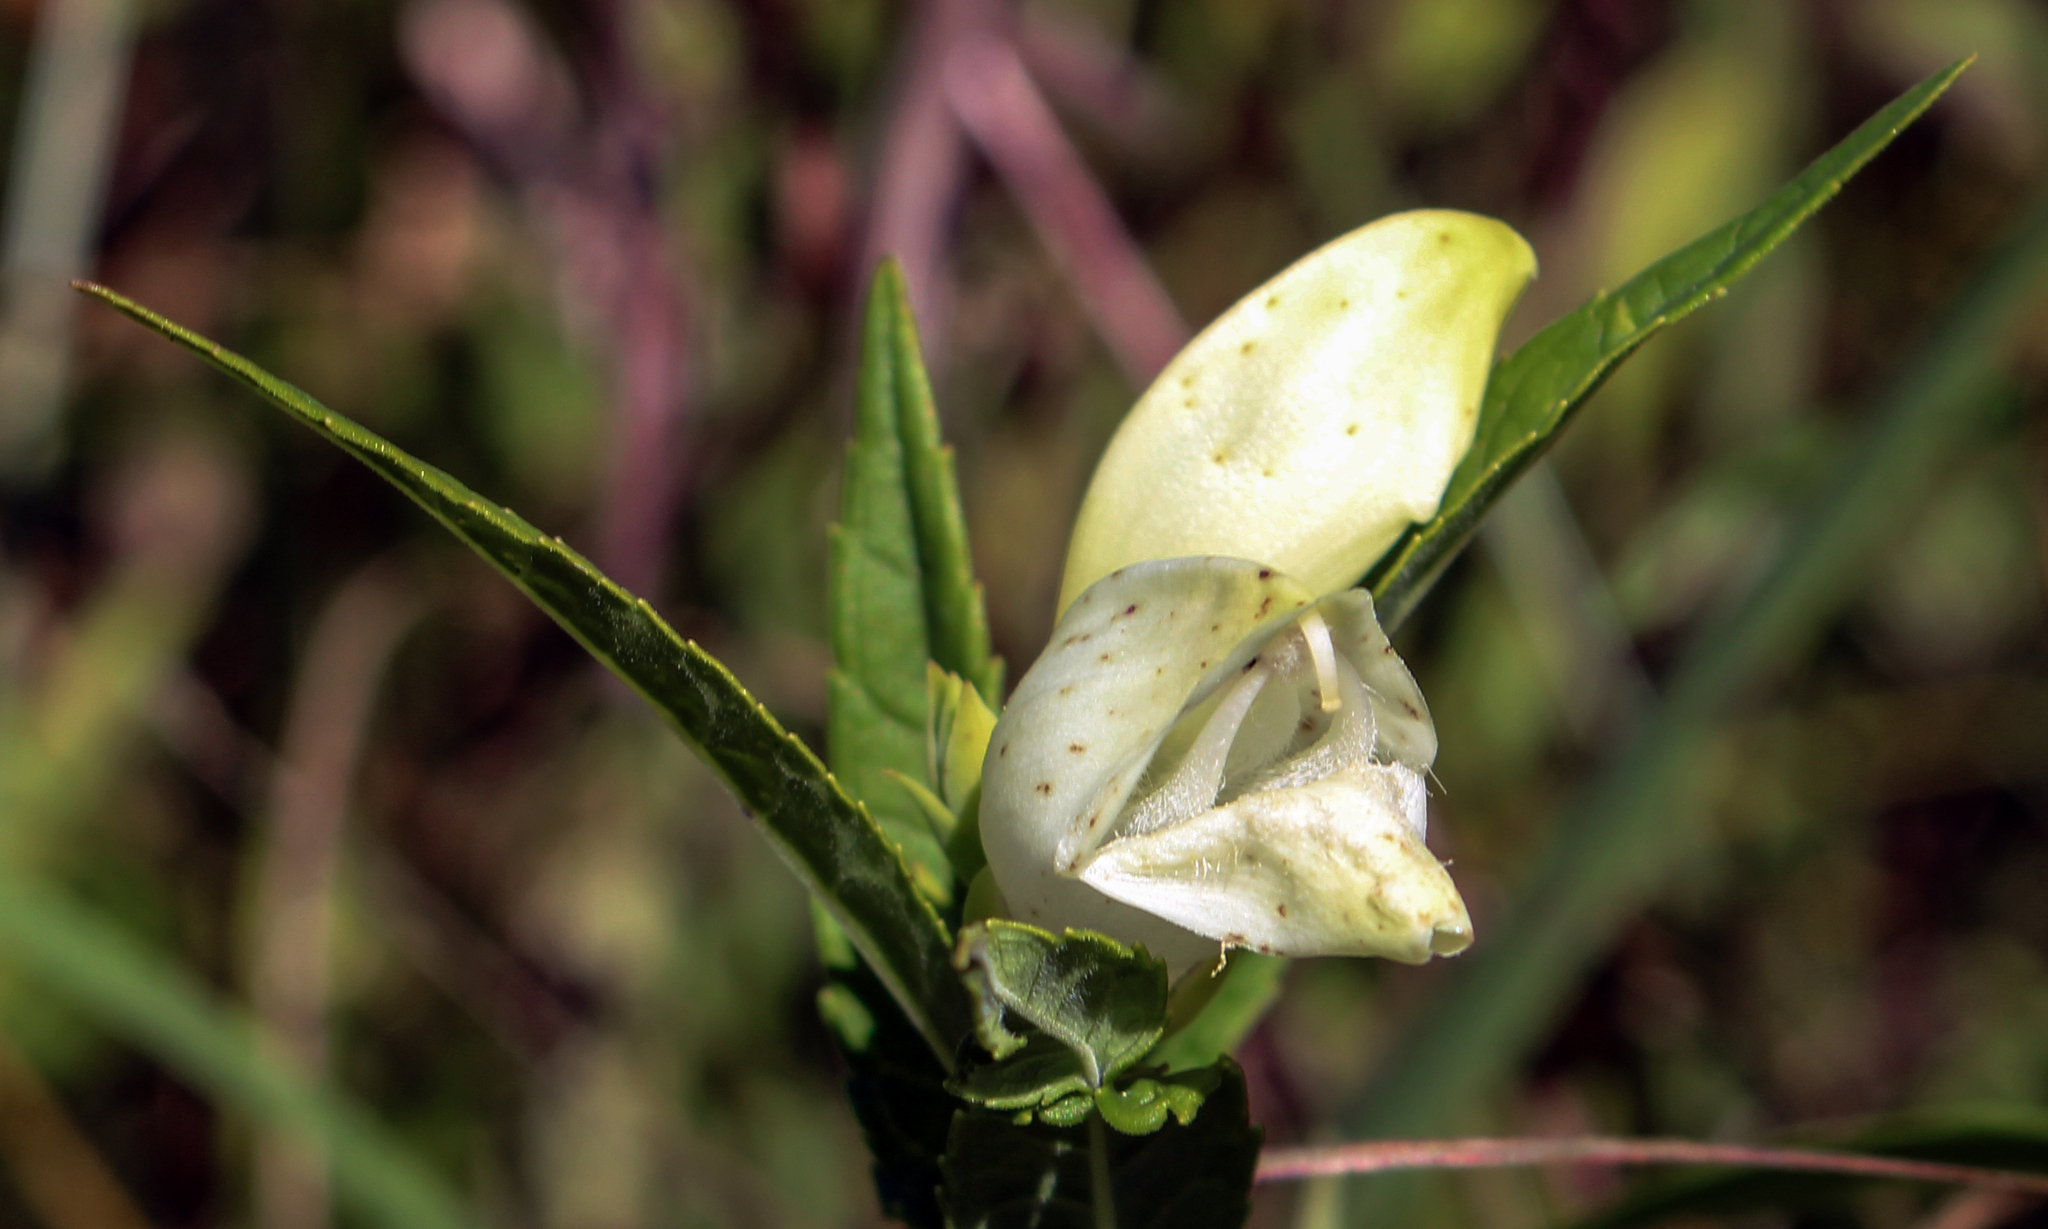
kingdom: Plantae
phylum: Tracheophyta
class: Magnoliopsida
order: Lamiales
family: Plantaginaceae
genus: Chelone
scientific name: Chelone glabra
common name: Snakehead
